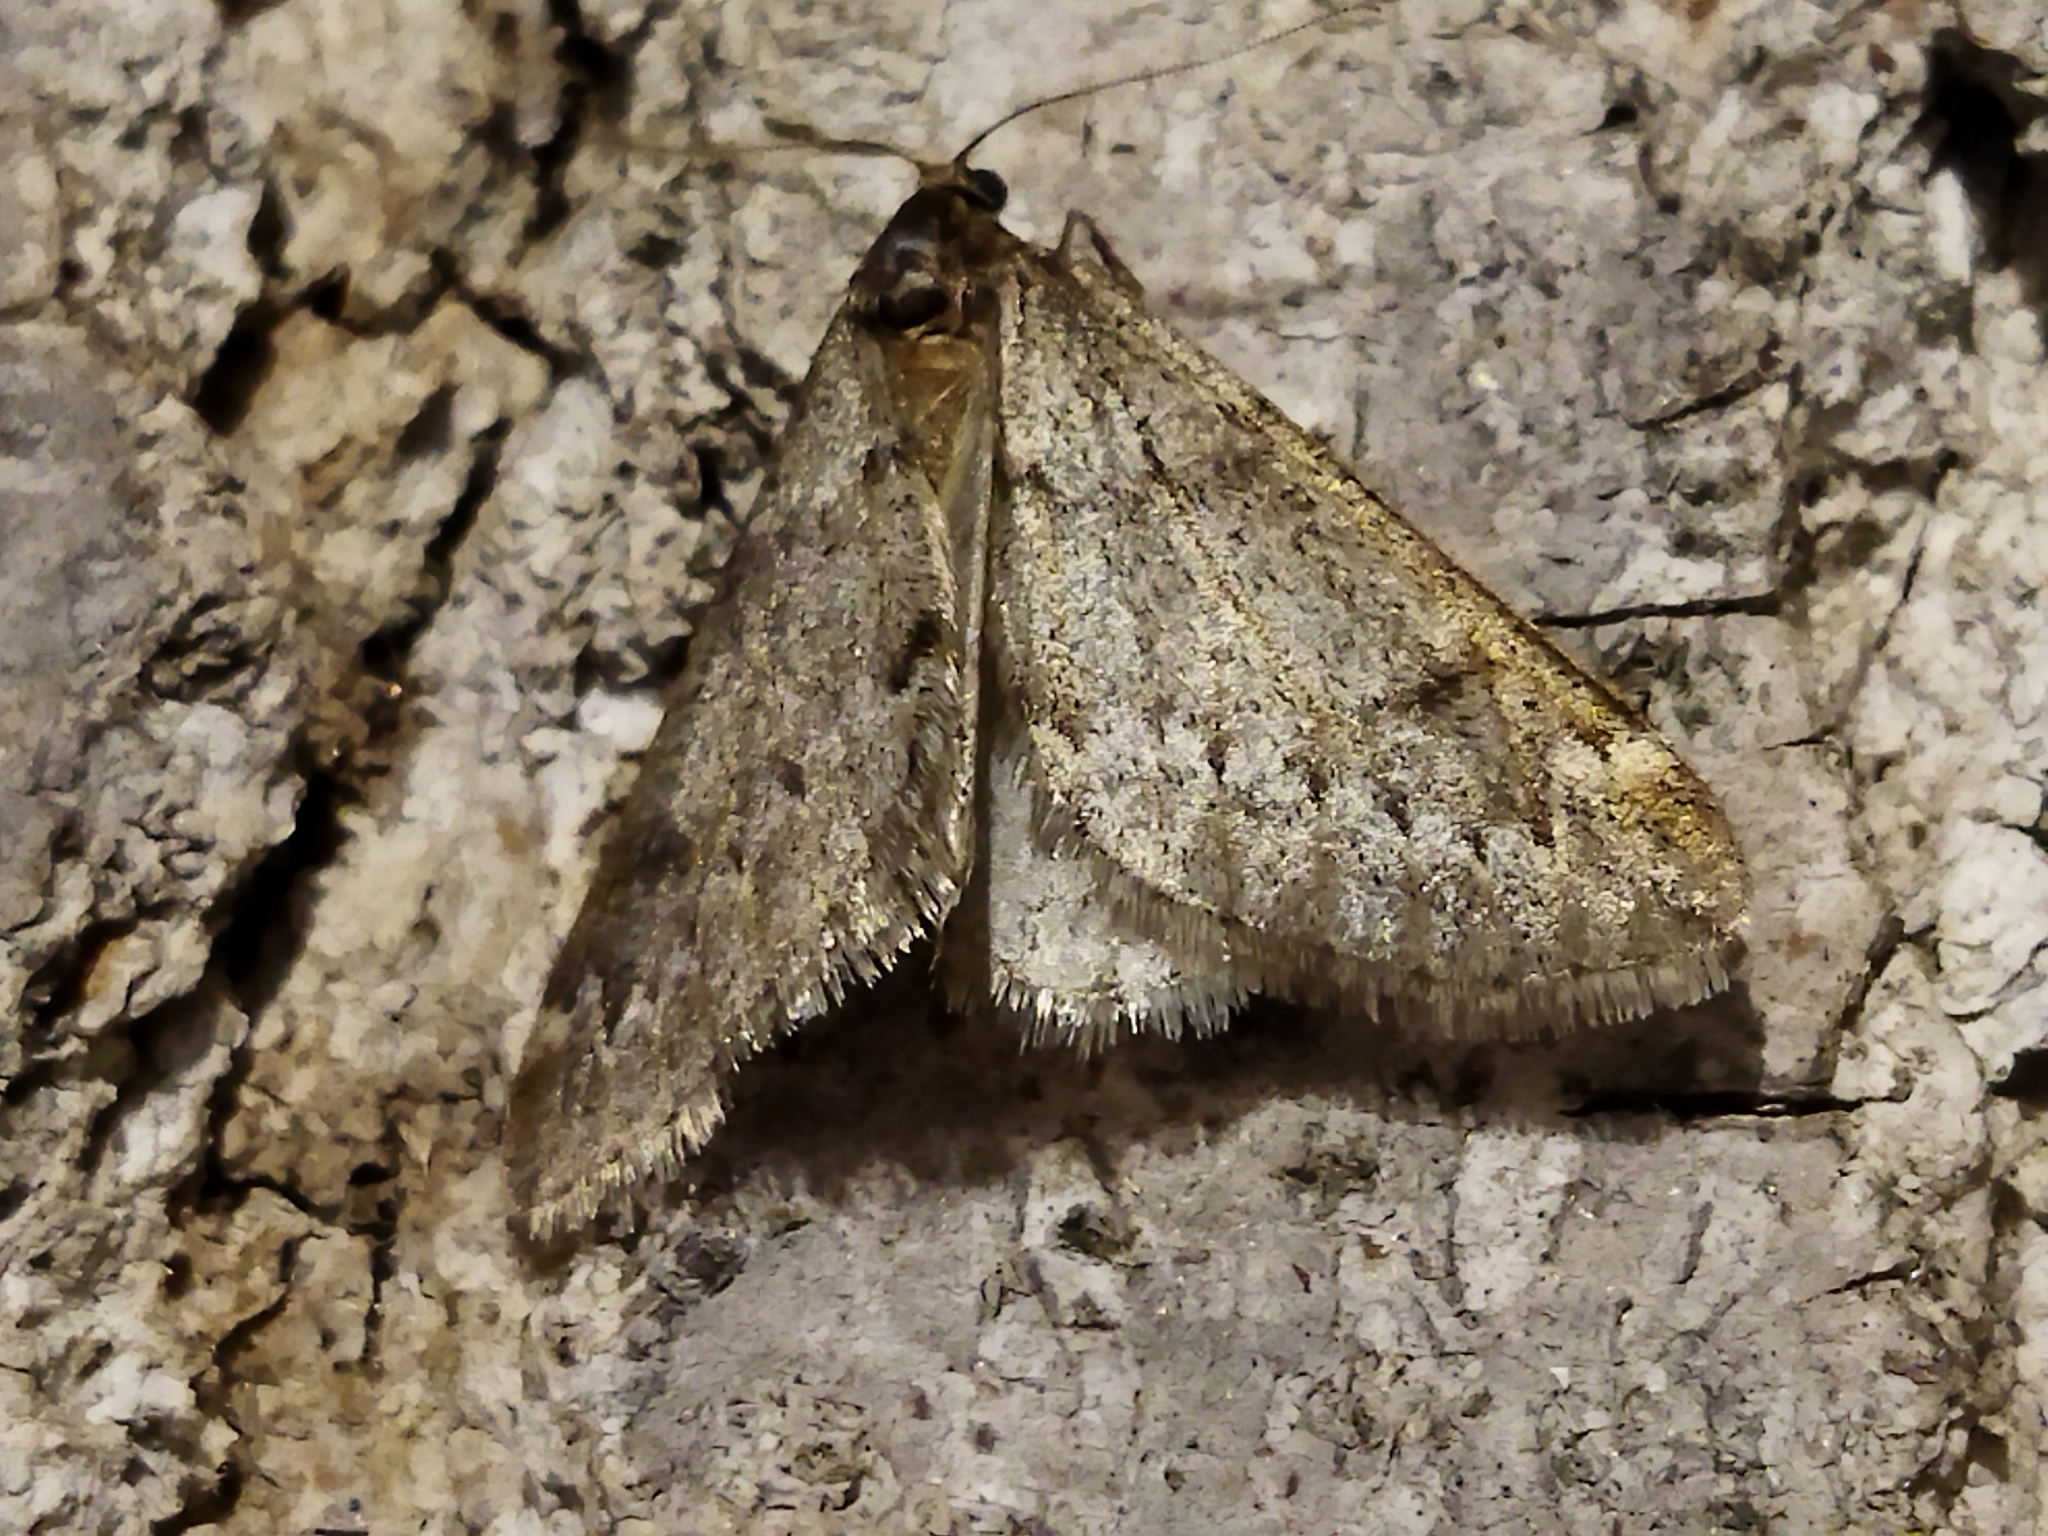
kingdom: Animalia
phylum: Arthropoda
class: Insecta
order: Lepidoptera
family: Geometridae
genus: Alsophila
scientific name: Alsophila aescularia
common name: March moth
